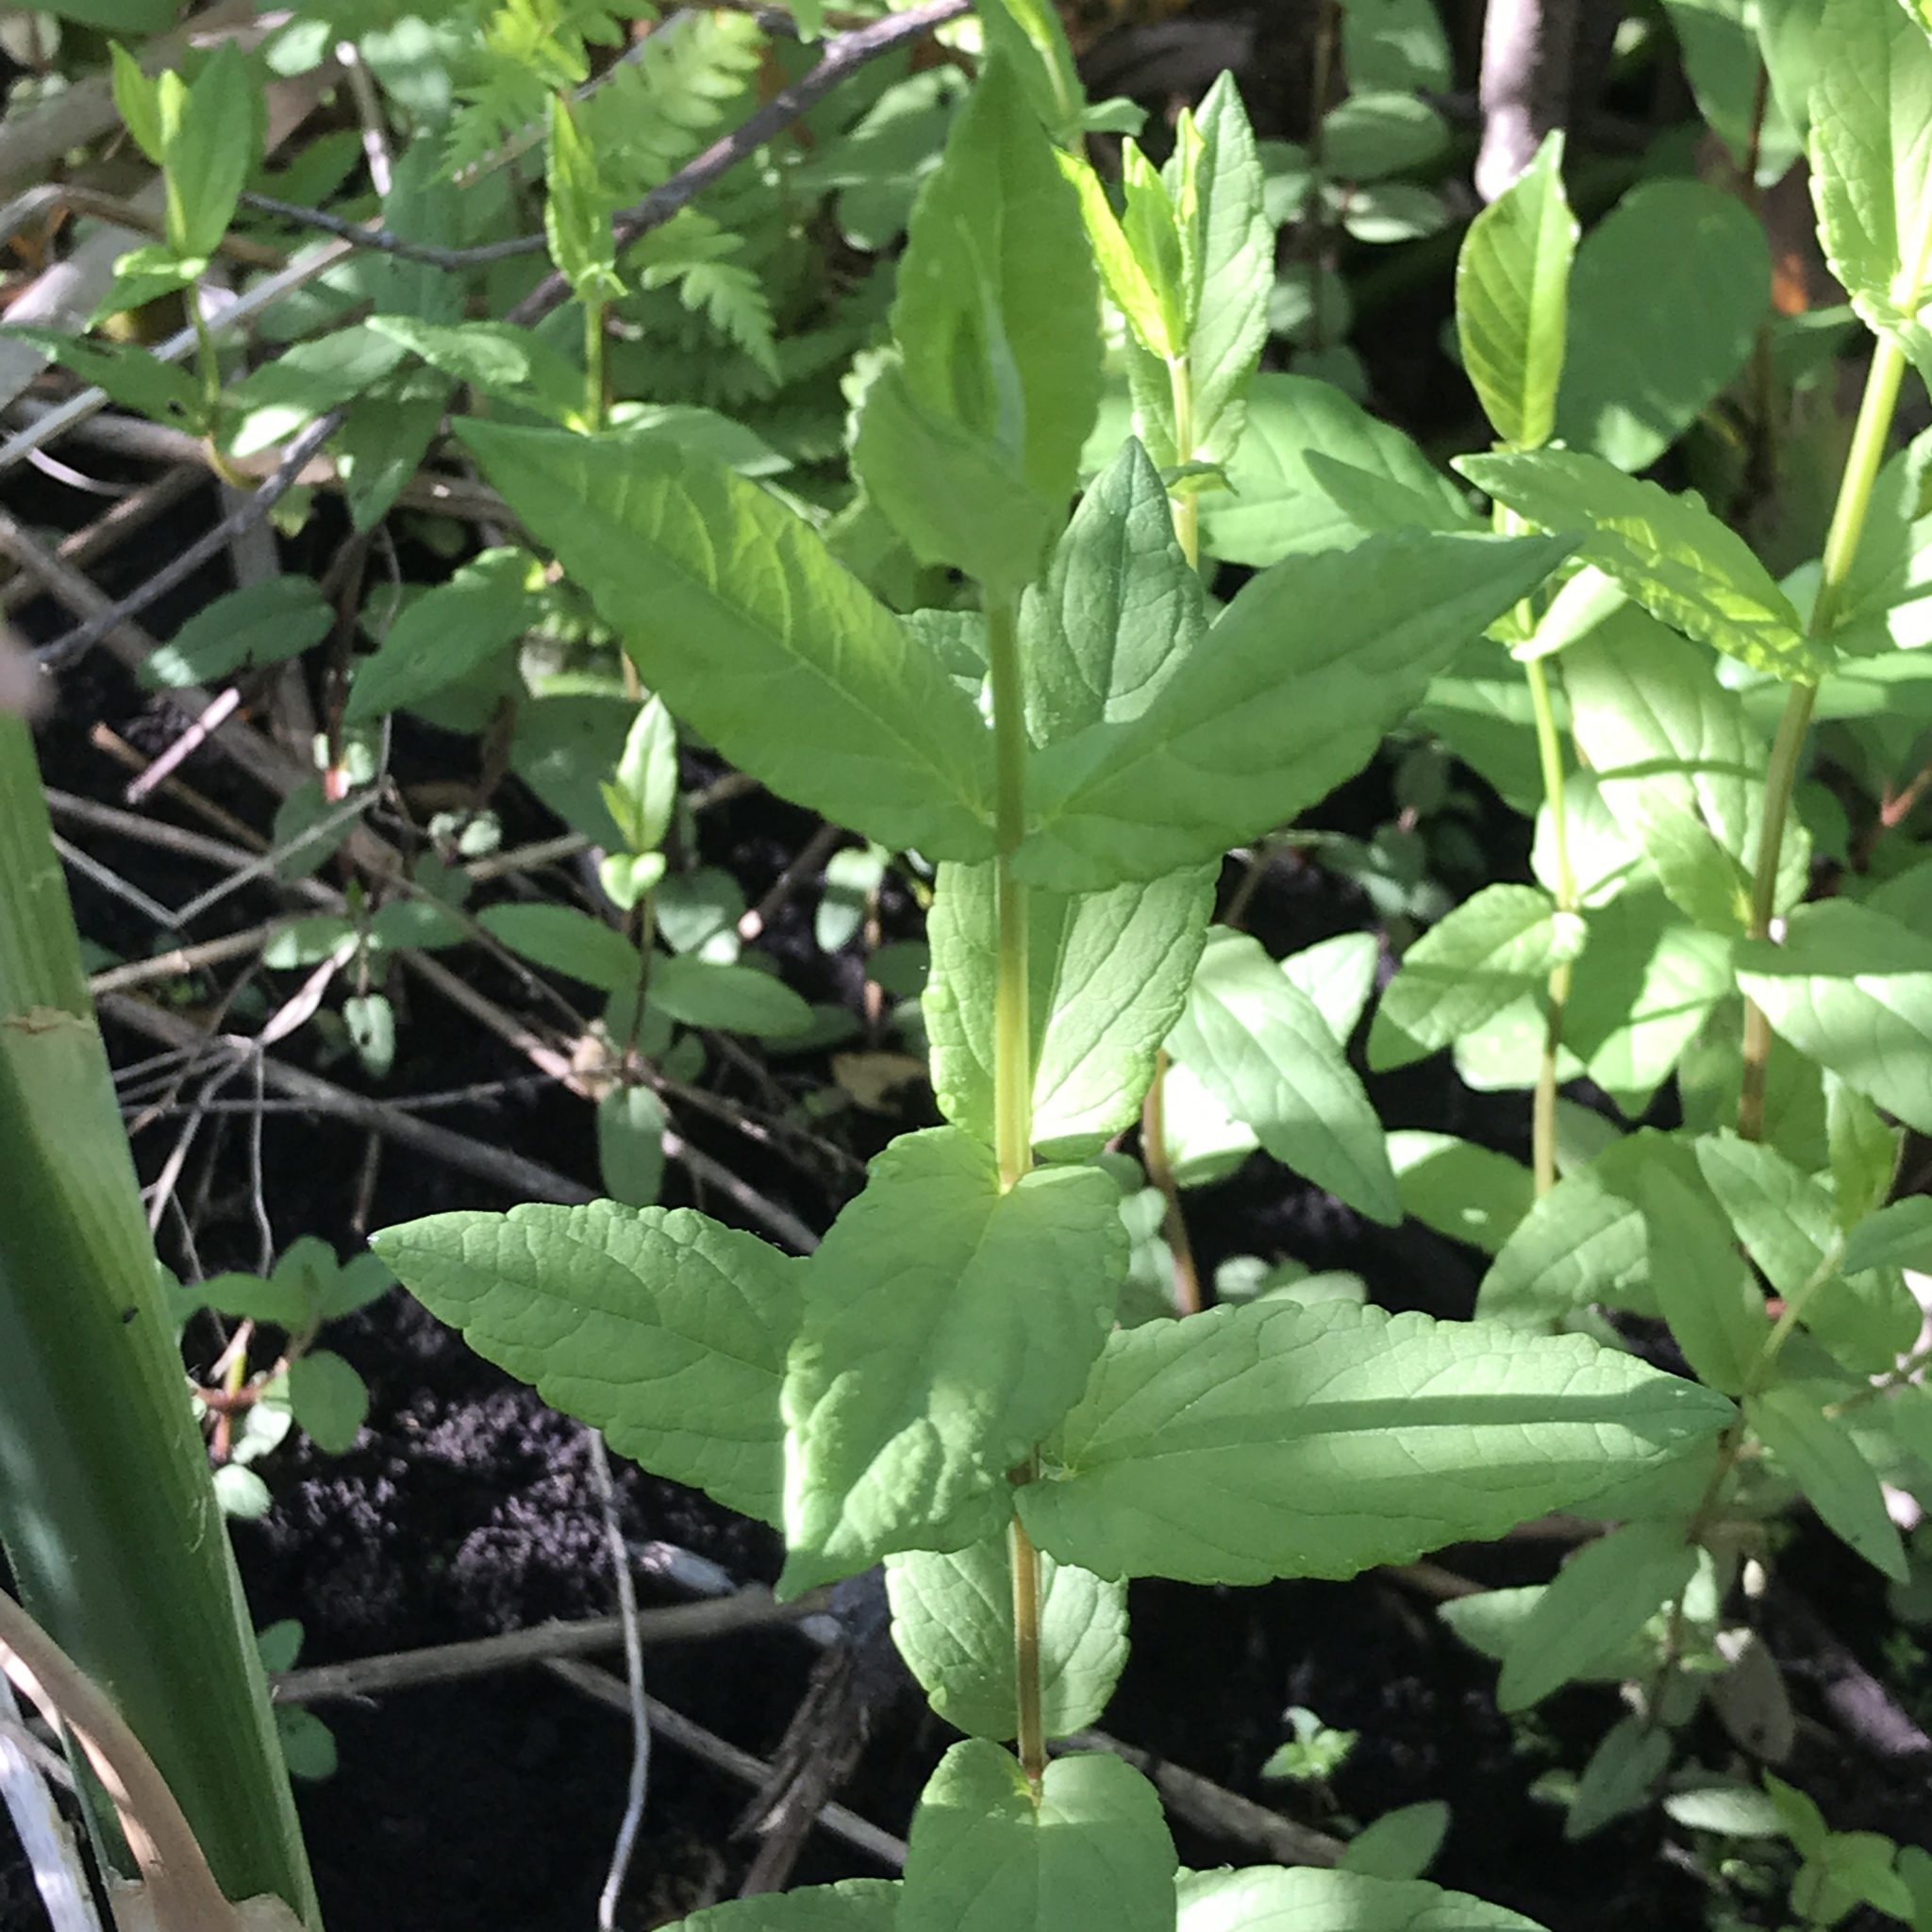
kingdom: Plantae
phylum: Tracheophyta
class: Magnoliopsida
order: Lamiales
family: Lamiaceae
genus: Scutellaria
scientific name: Scutellaria galericulata
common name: Skullcap
